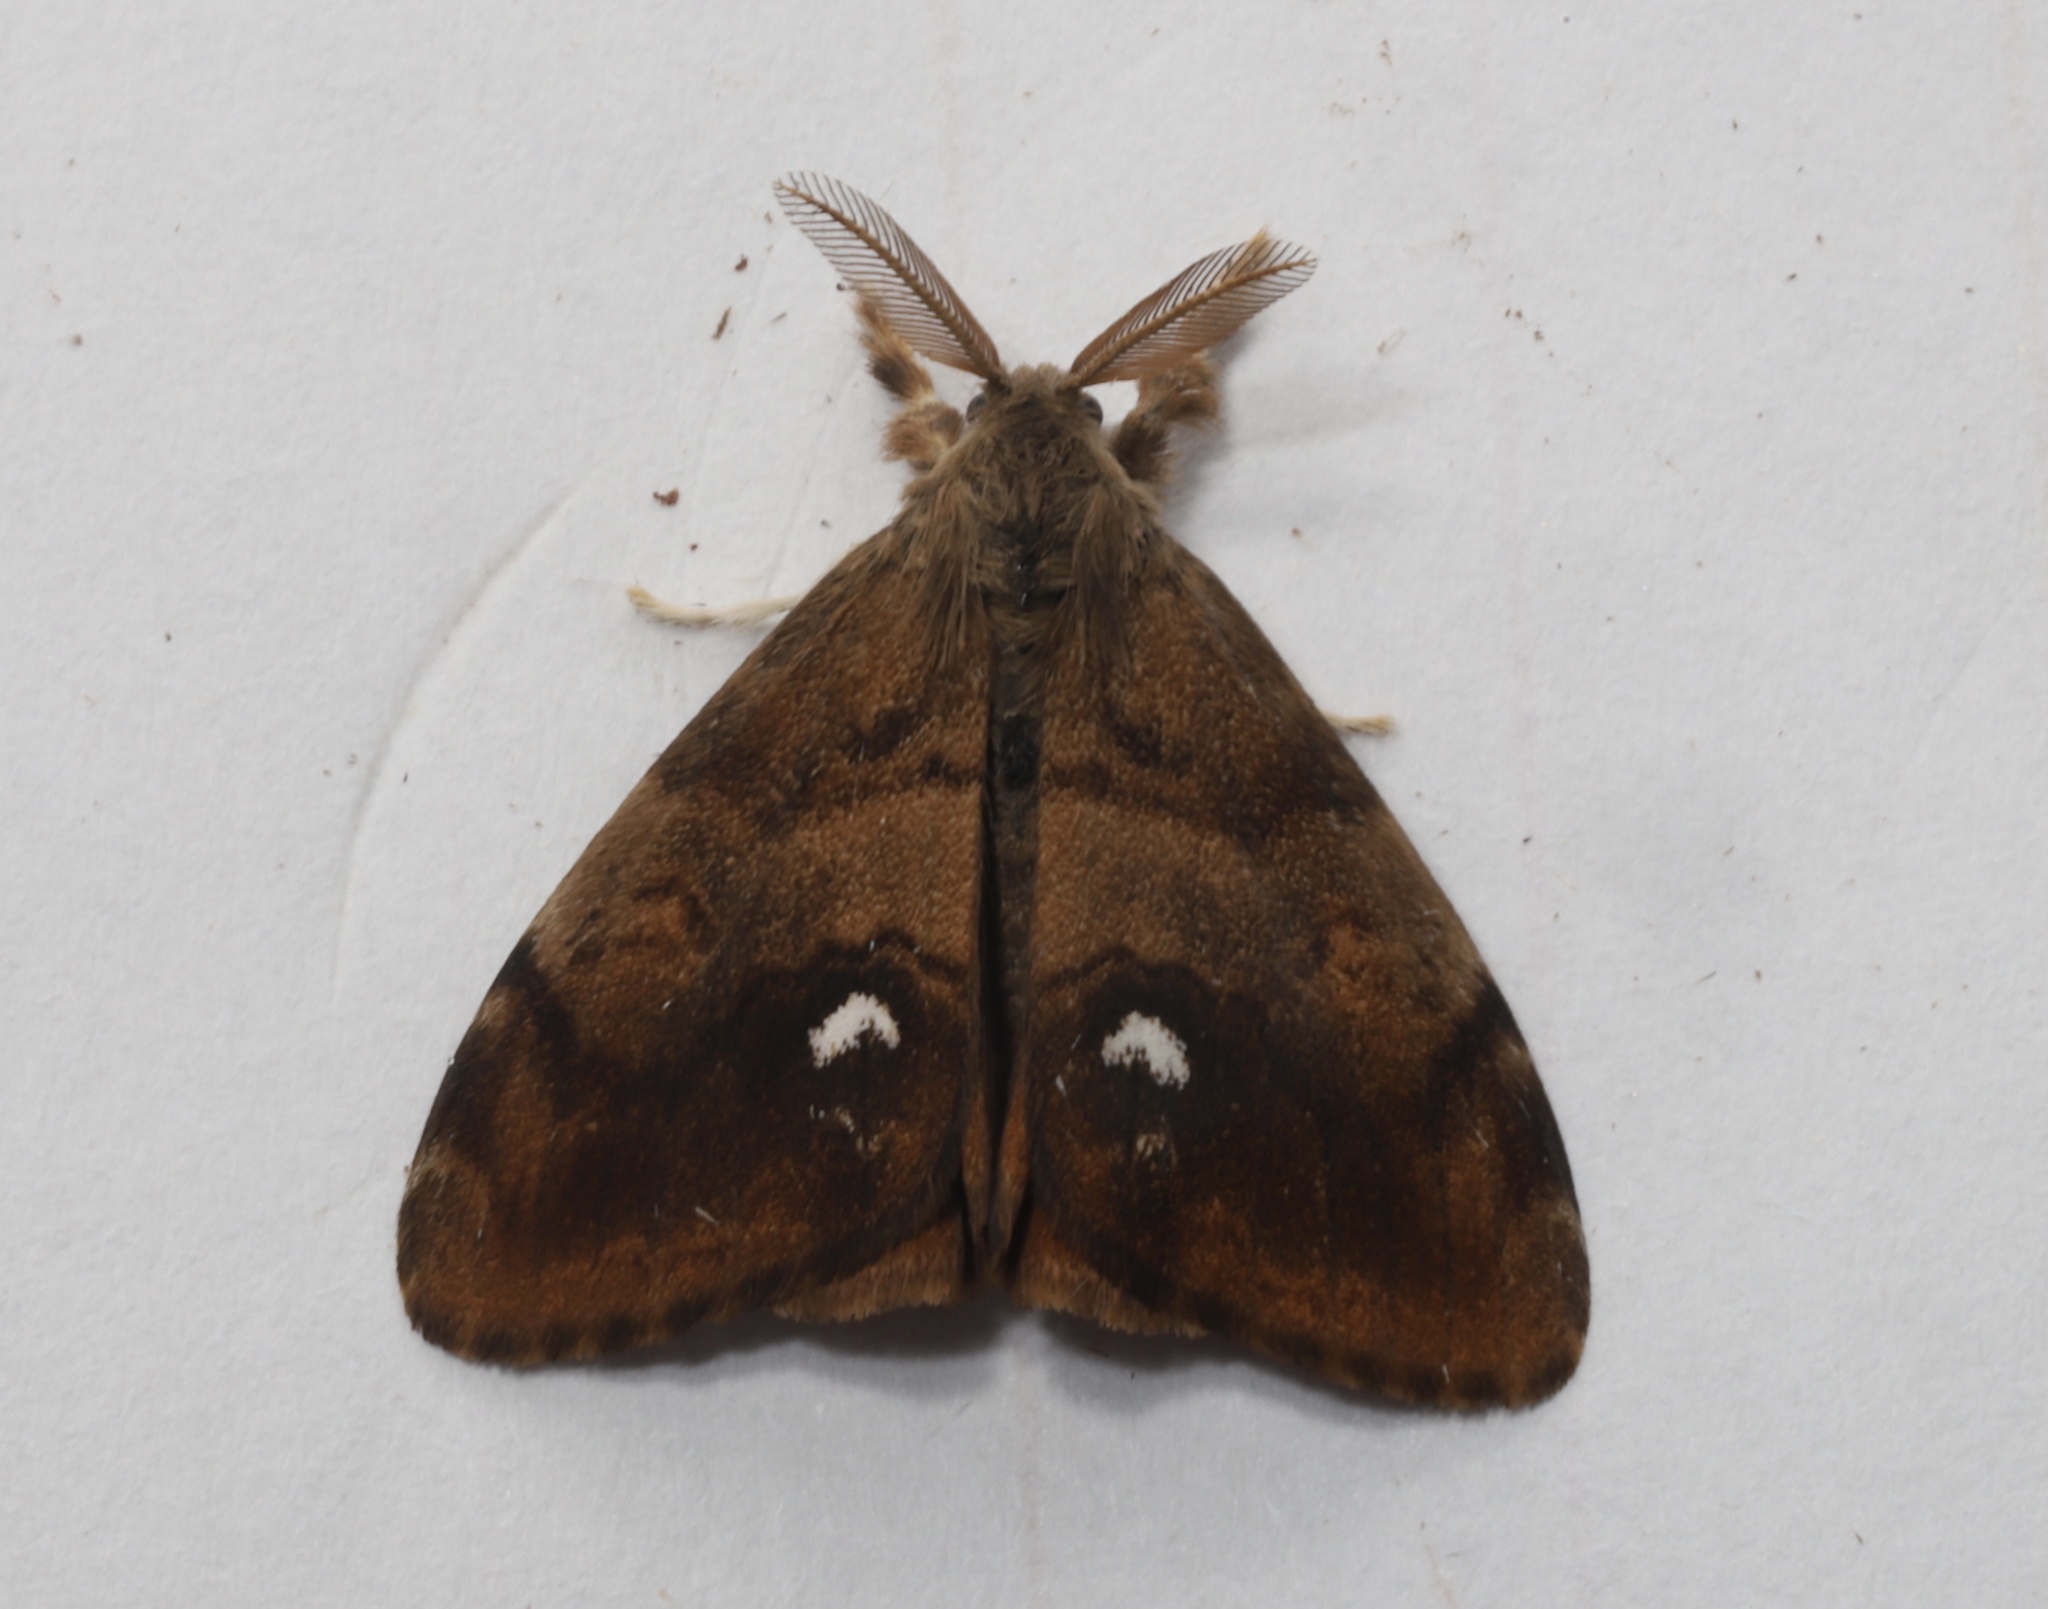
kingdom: Animalia
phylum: Arthropoda
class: Insecta
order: Lepidoptera
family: Erebidae
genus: Orgyia
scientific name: Orgyia antiqua
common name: Vapourer
